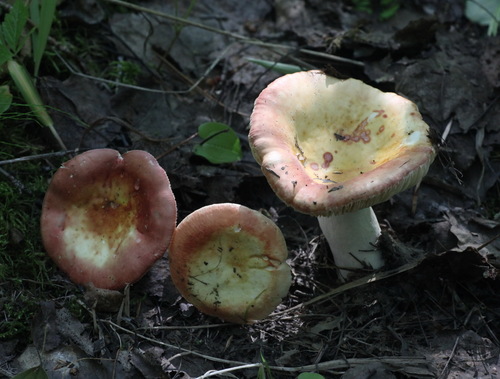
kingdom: Fungi
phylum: Basidiomycota
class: Agaricomycetes
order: Russulales
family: Russulaceae
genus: Russula
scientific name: Russula
